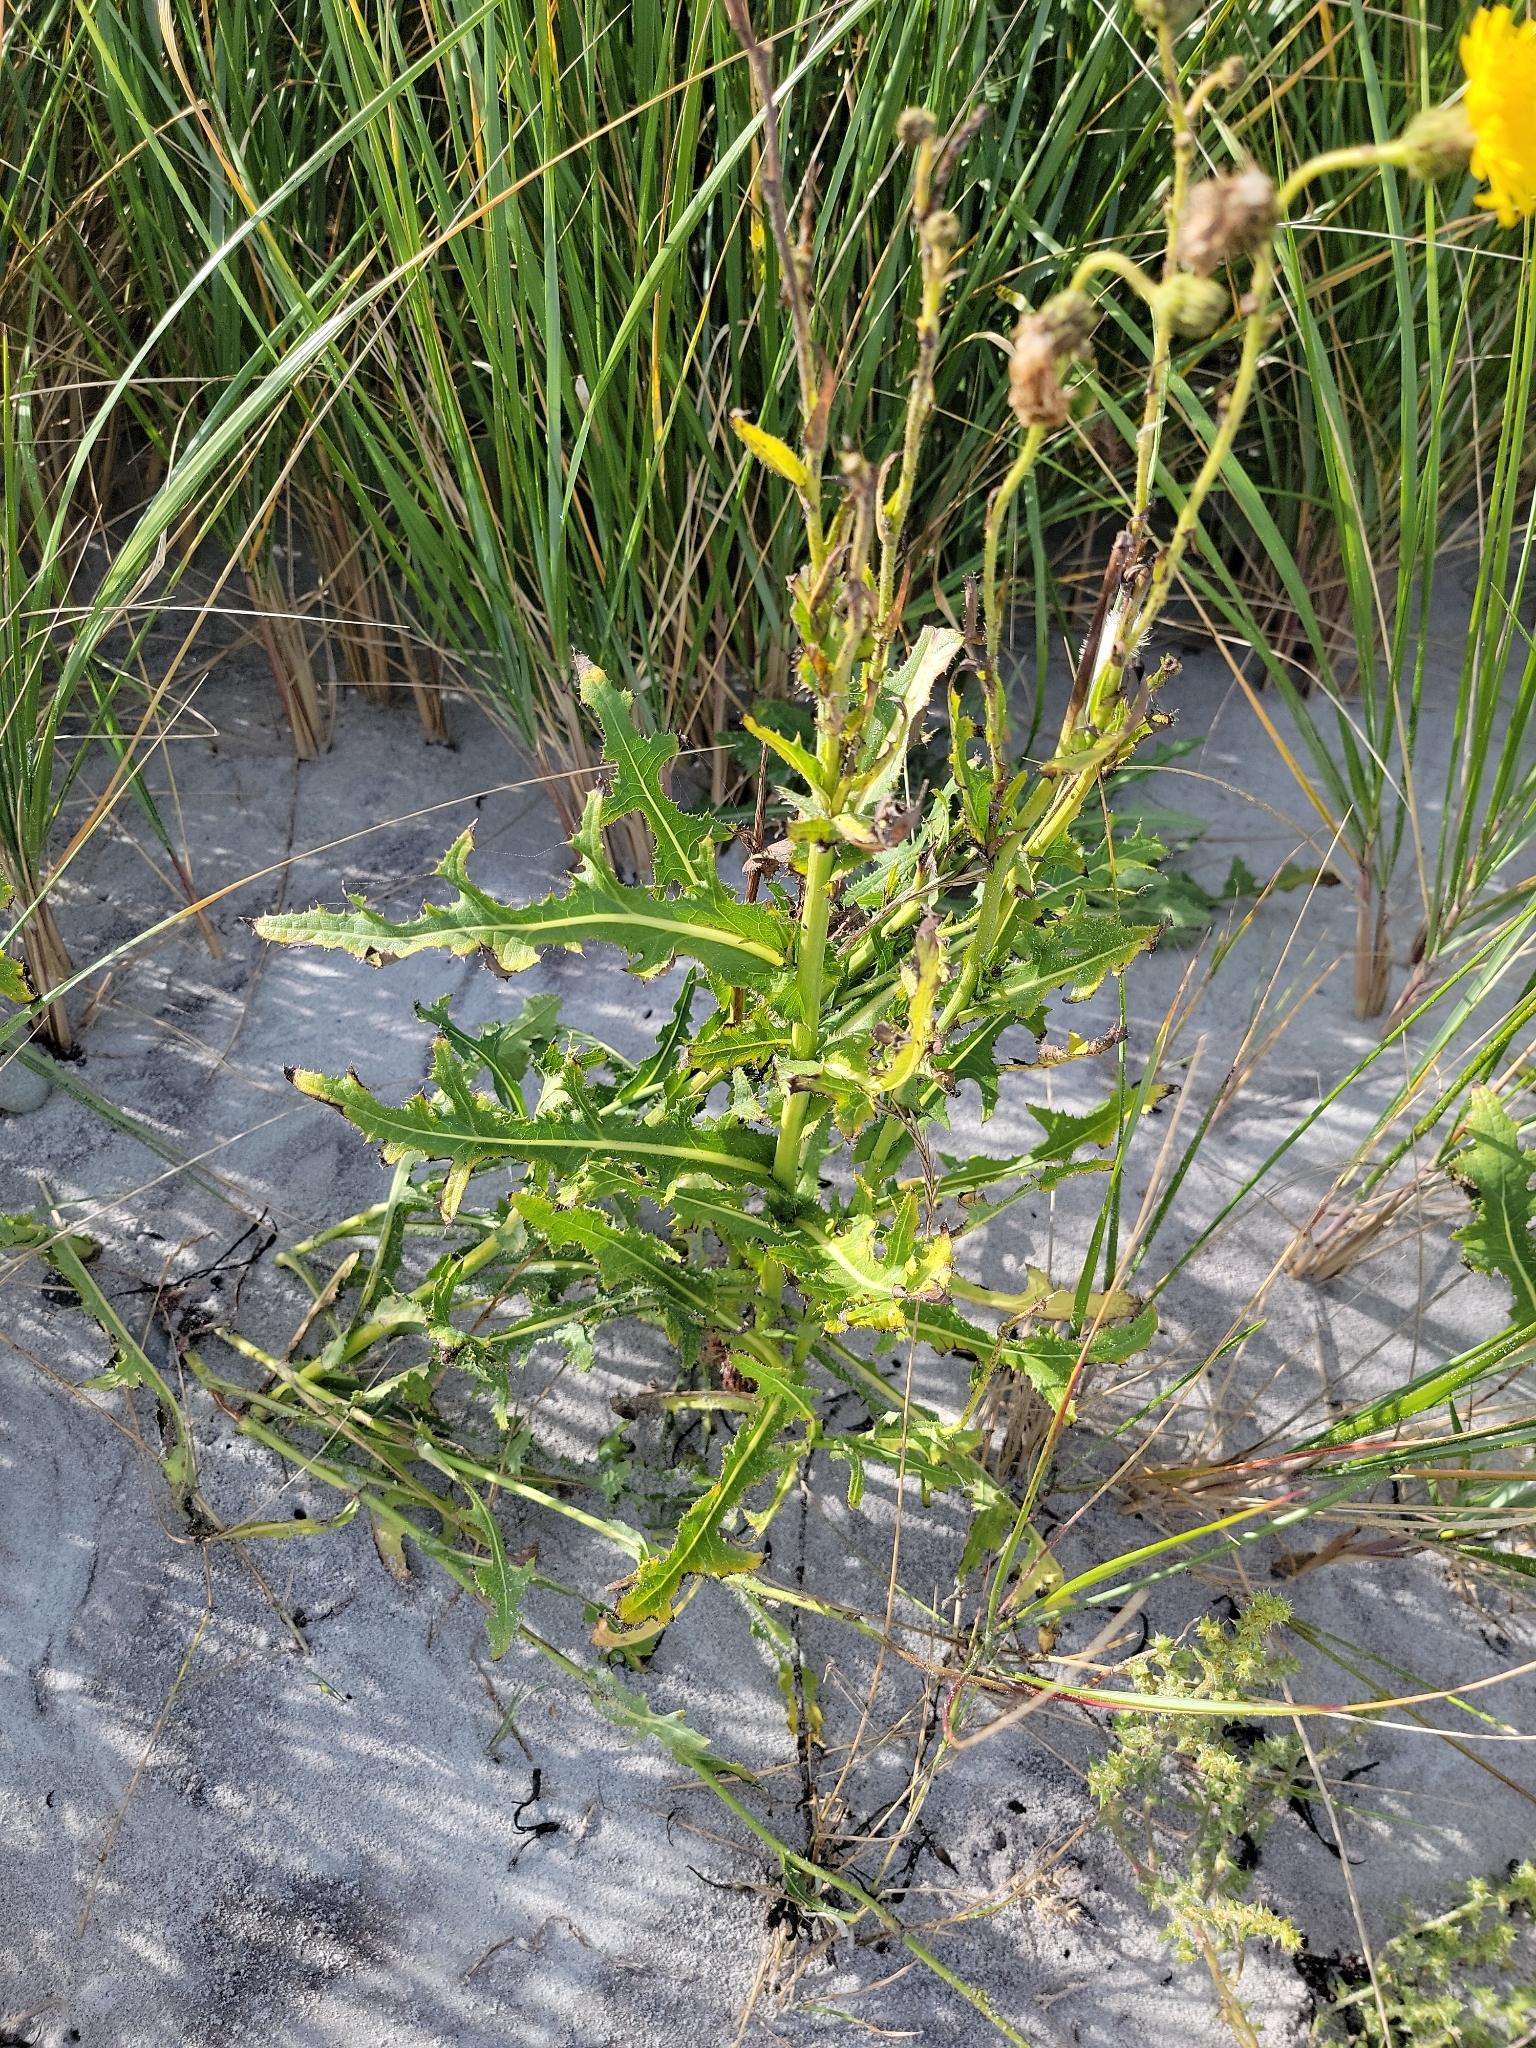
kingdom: Plantae
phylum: Tracheophyta
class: Magnoliopsida
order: Asterales
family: Asteraceae
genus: Sonchus
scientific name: Sonchus arvensis
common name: Perennial sow-thistle
